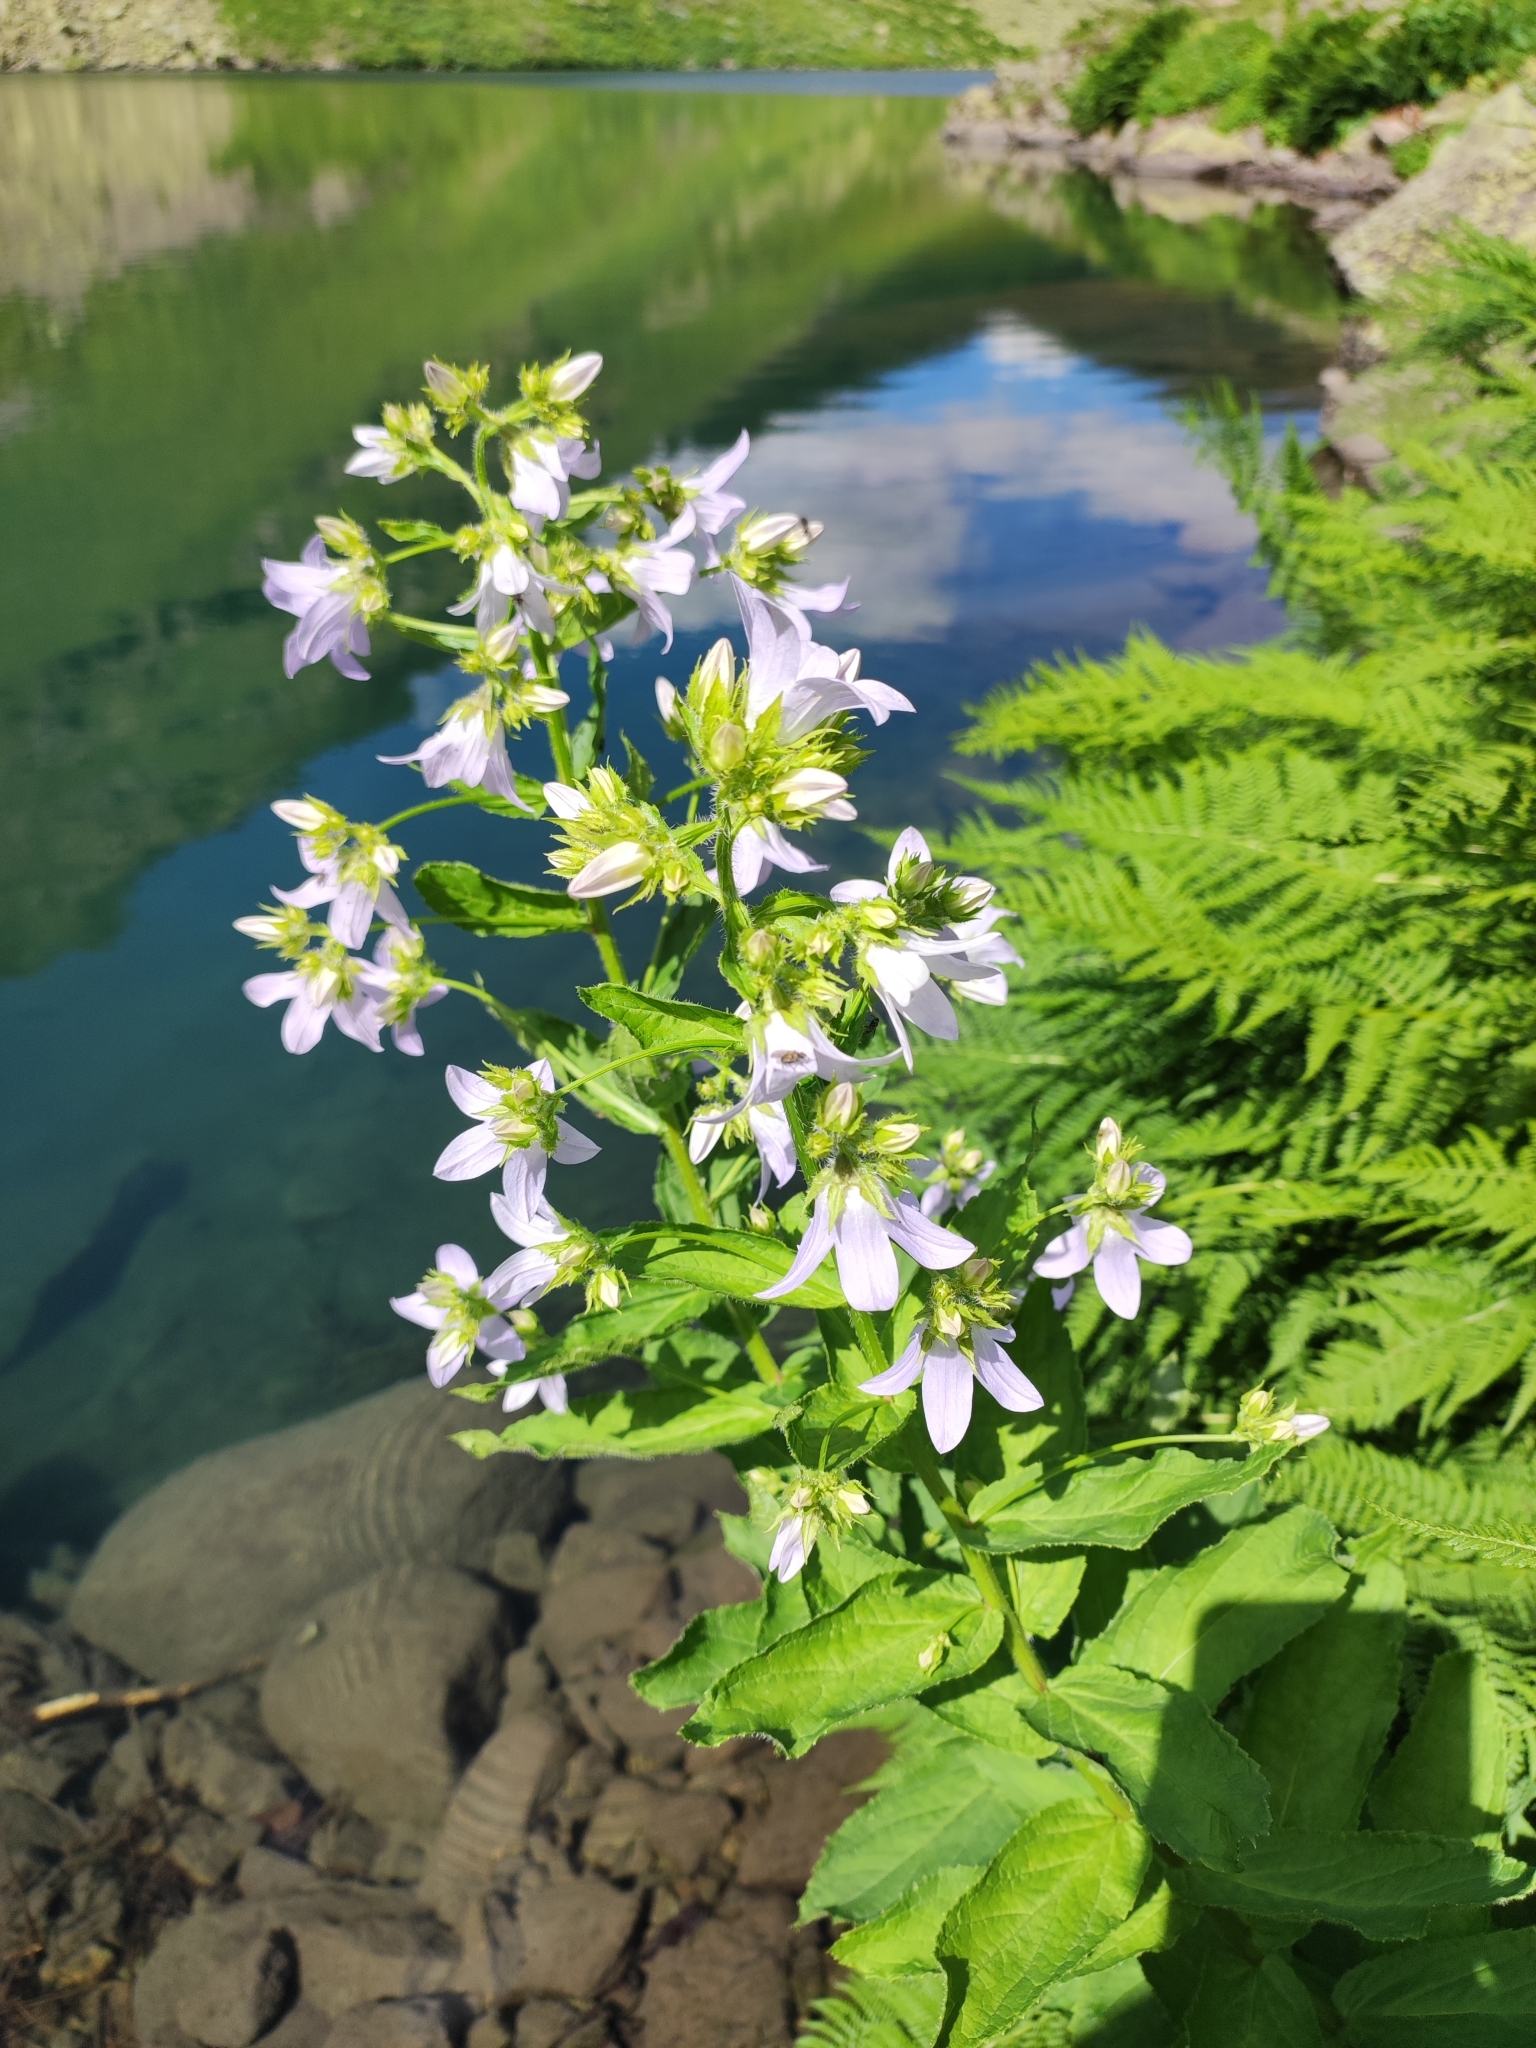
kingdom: Plantae
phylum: Tracheophyta
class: Magnoliopsida
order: Asterales
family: Campanulaceae
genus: Campanula
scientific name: Campanula lactiflora
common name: Milky bellflower
